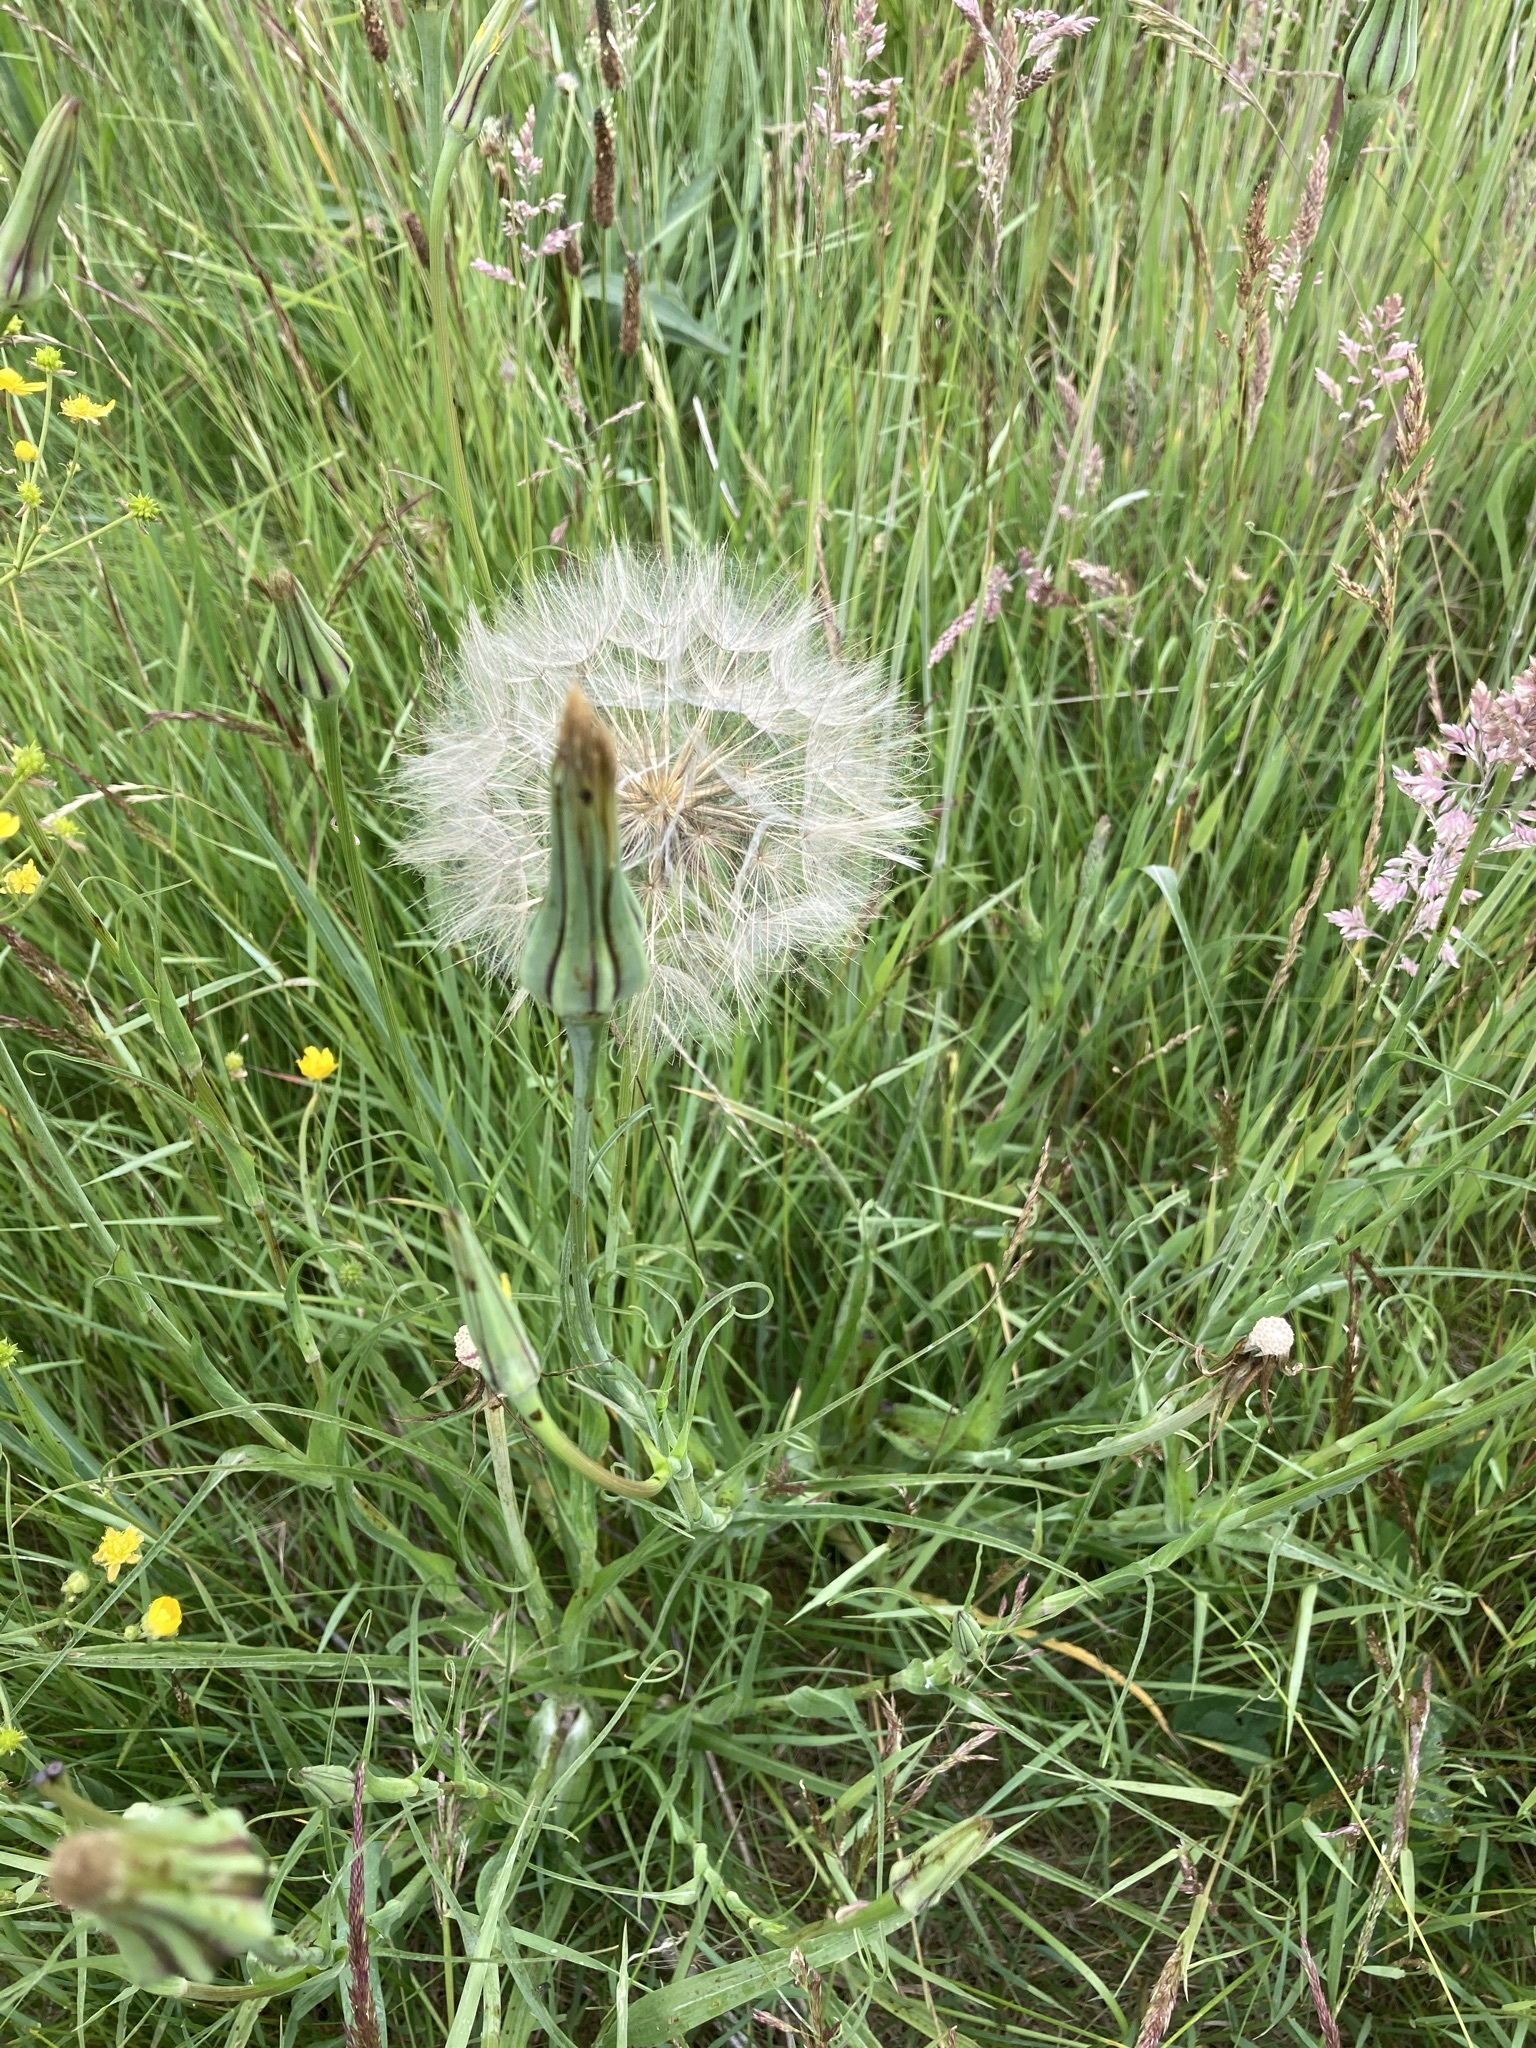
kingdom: Plantae
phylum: Tracheophyta
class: Magnoliopsida
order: Asterales
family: Asteraceae
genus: Tragopogon
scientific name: Tragopogon pratensis
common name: Goat's-beard
